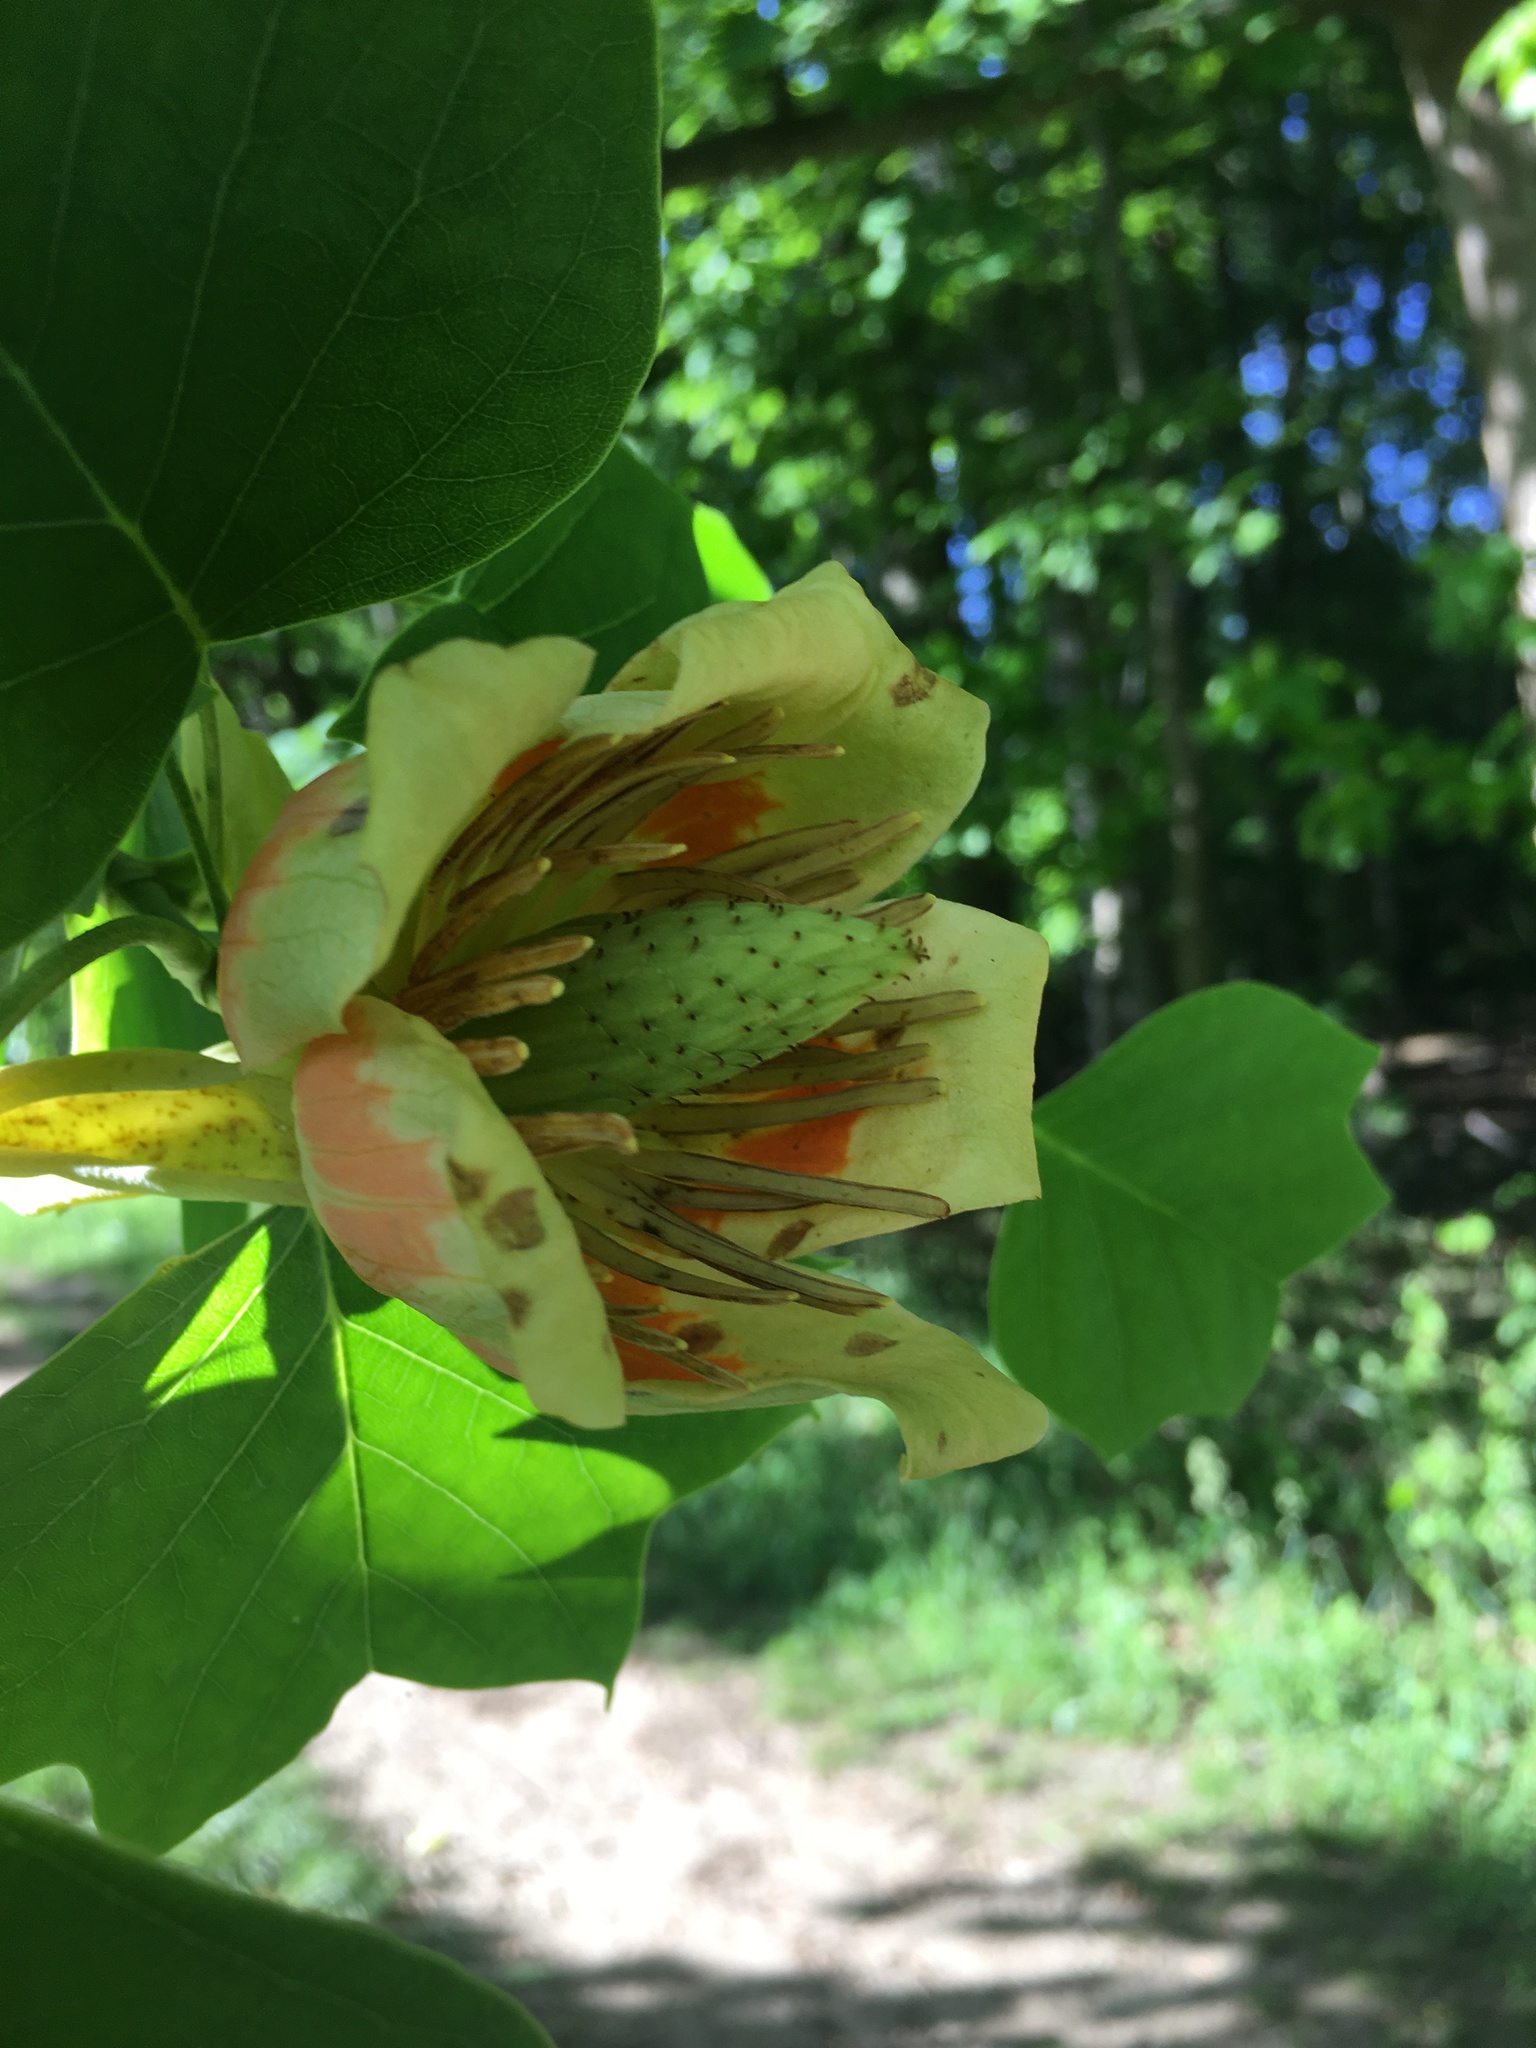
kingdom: Plantae
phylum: Tracheophyta
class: Magnoliopsida
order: Magnoliales
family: Magnoliaceae
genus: Liriodendron
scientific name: Liriodendron tulipifera
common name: Tulip tree
